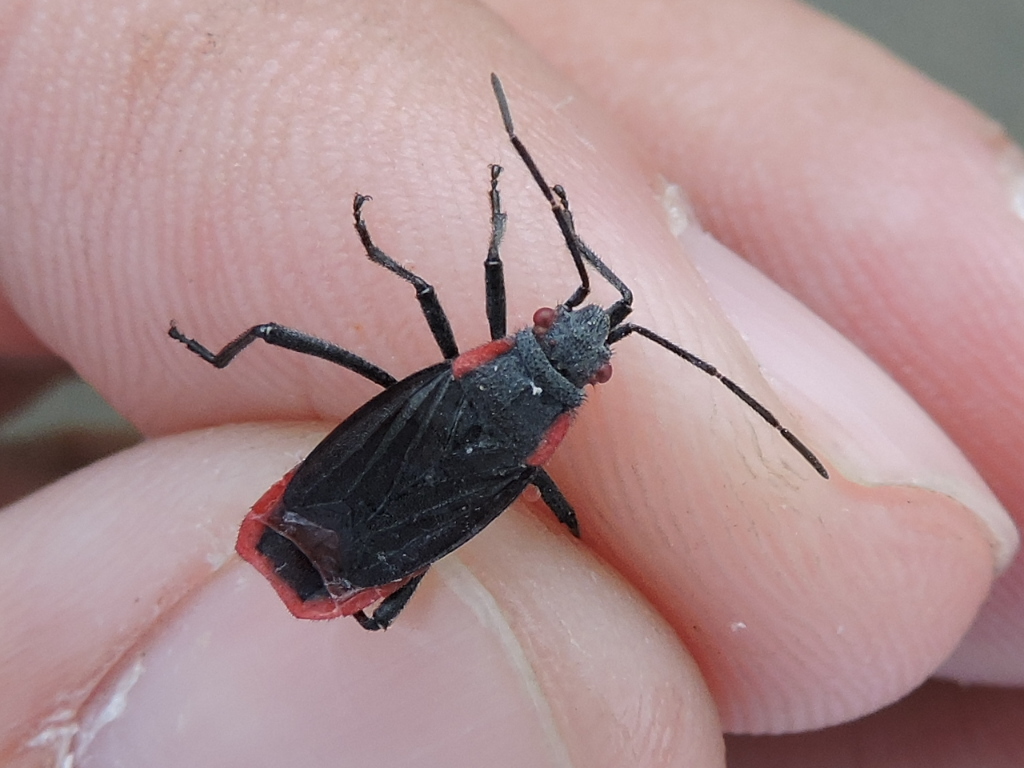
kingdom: Animalia
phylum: Arthropoda
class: Insecta
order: Hemiptera
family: Rhopalidae
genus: Jadera
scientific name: Jadera haematoloma
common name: Red-shouldered bug
